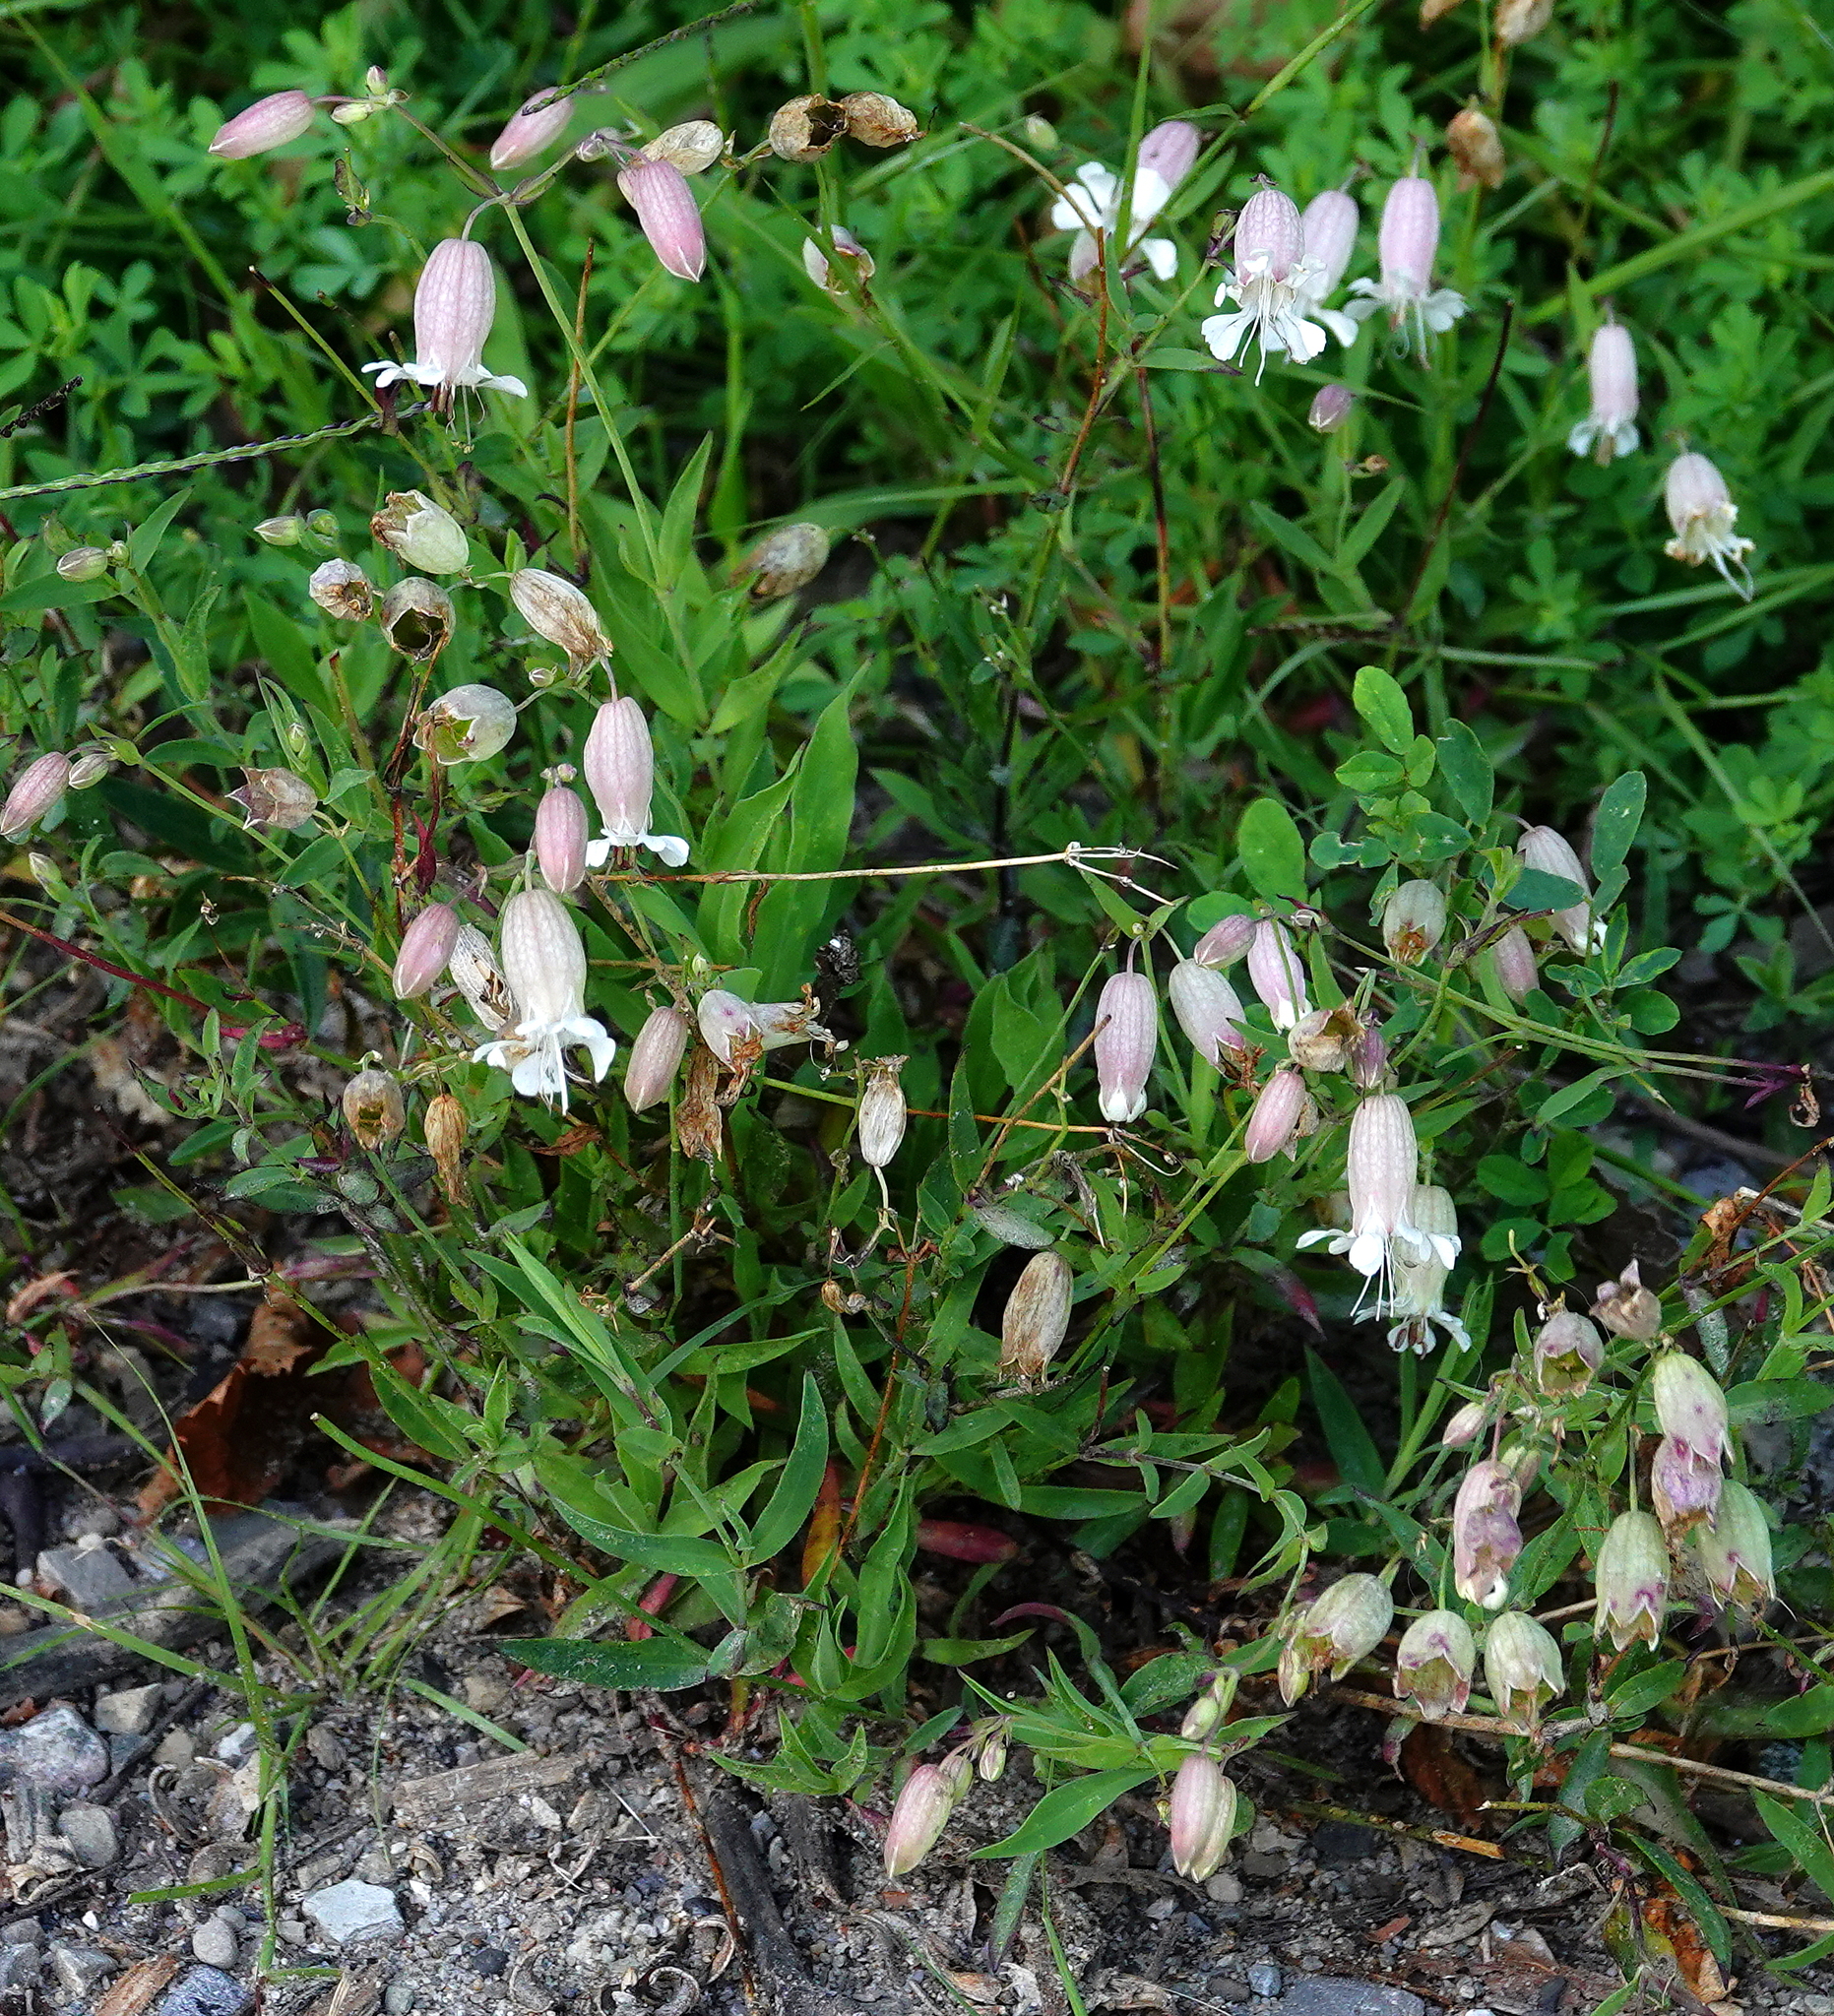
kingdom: Plantae
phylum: Tracheophyta
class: Magnoliopsida
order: Caryophyllales
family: Caryophyllaceae
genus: Silene
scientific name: Silene vulgaris
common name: Bladder campion
